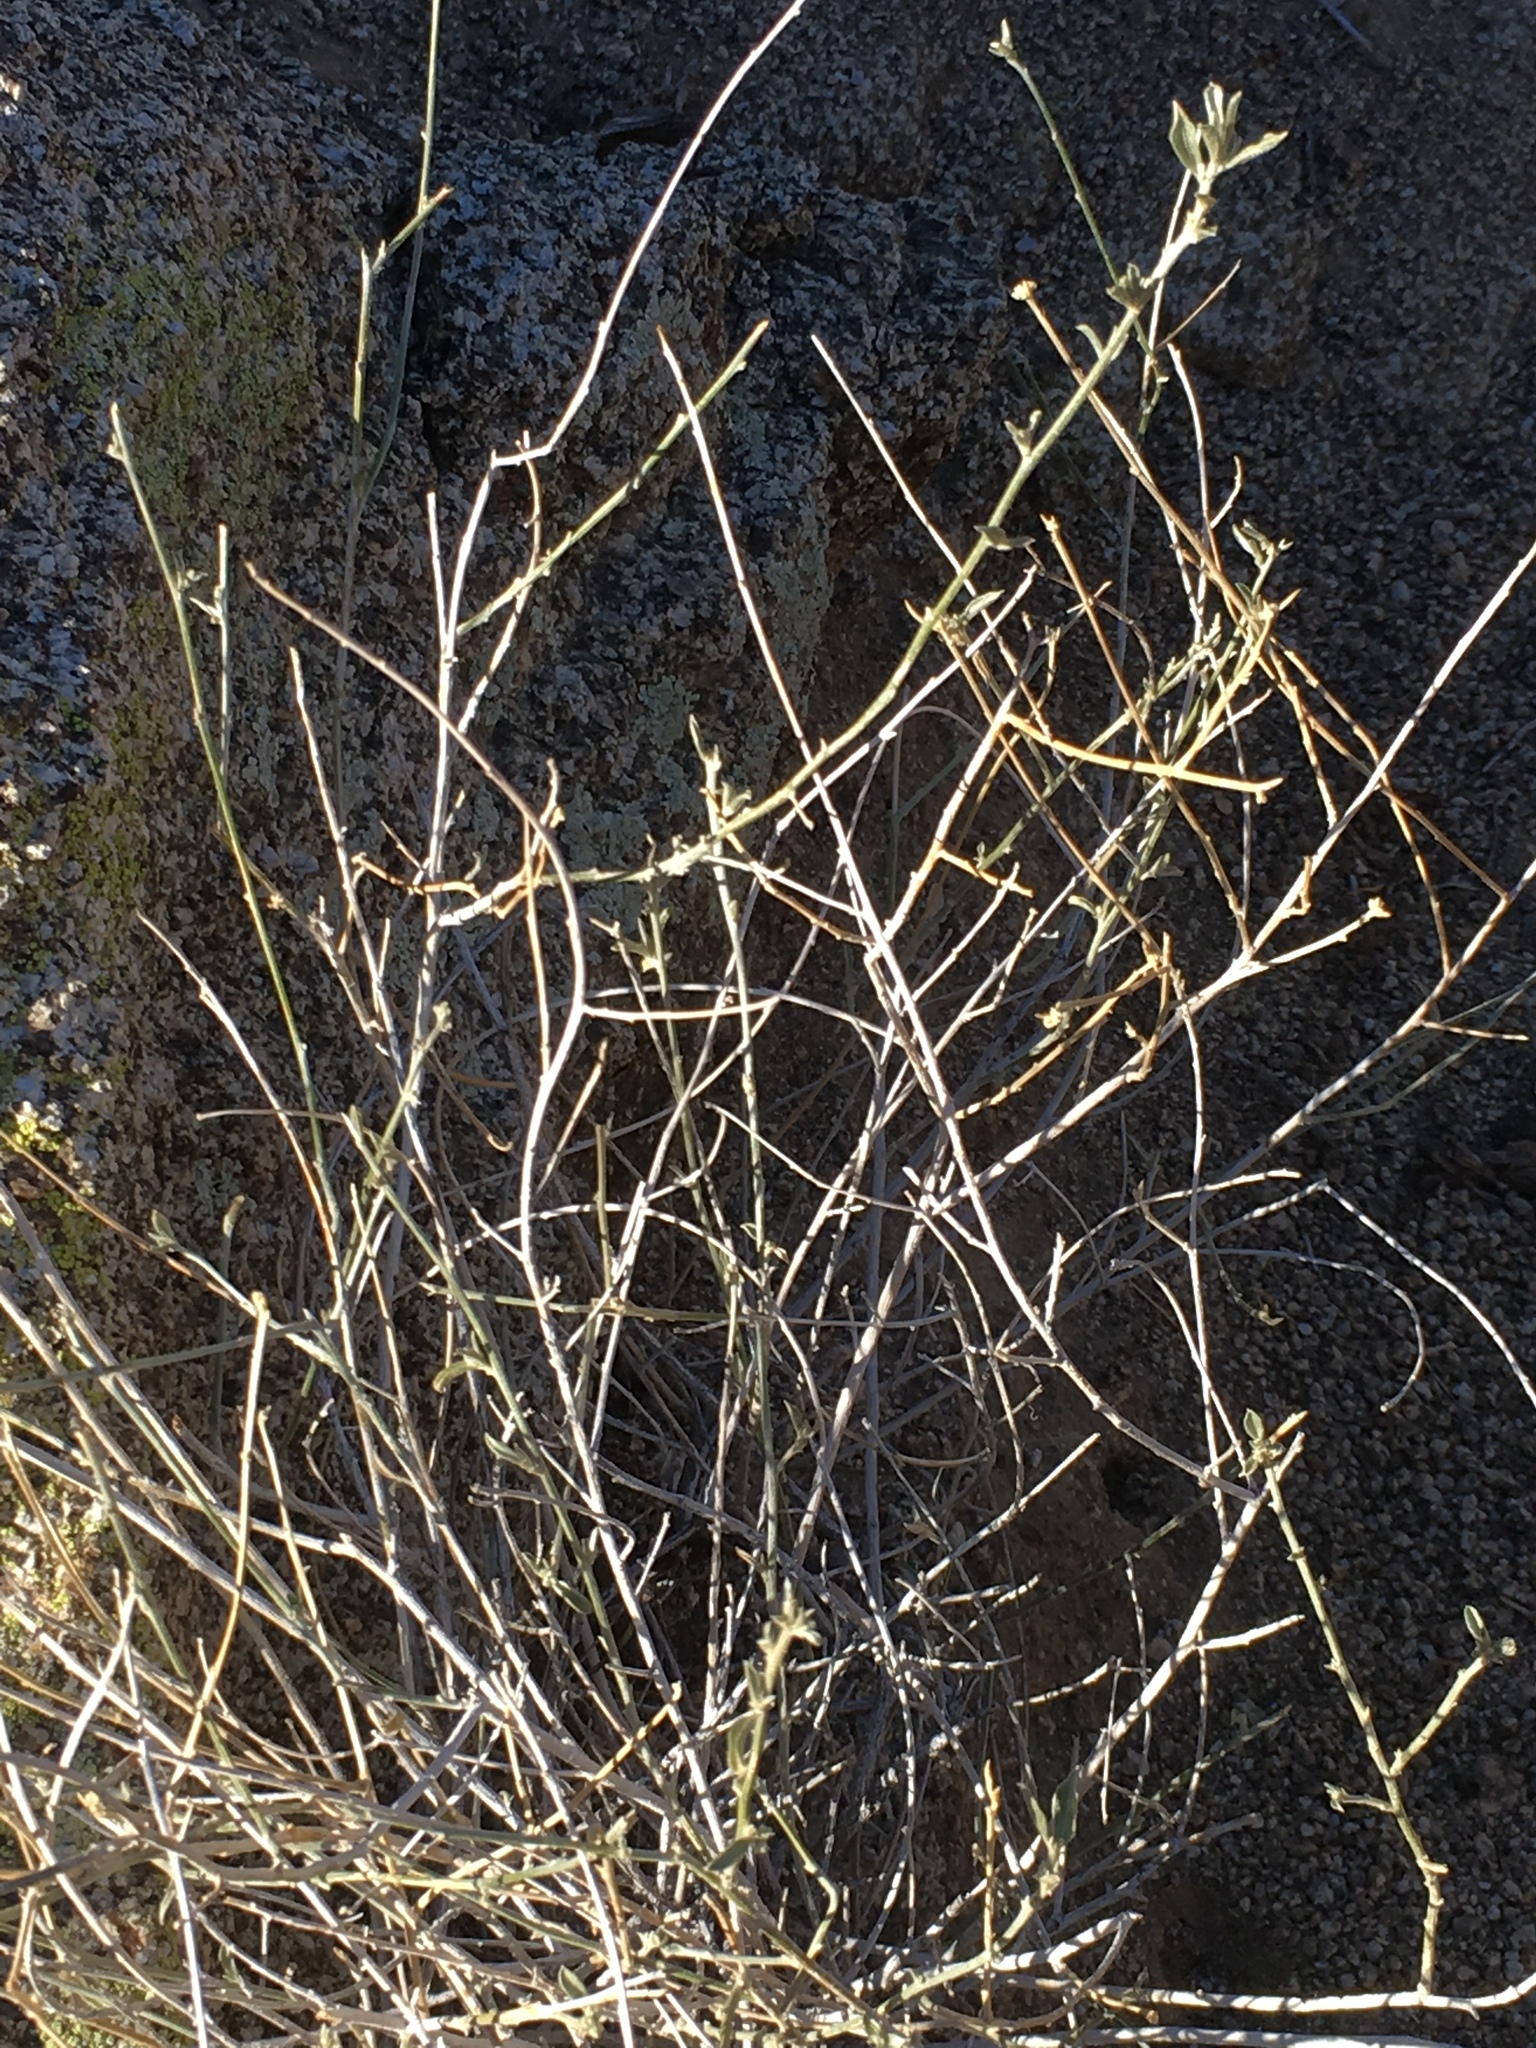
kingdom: Plantae
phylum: Tracheophyta
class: Magnoliopsida
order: Malpighiales
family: Euphorbiaceae
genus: Ditaxis
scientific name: Ditaxis lanceolata
